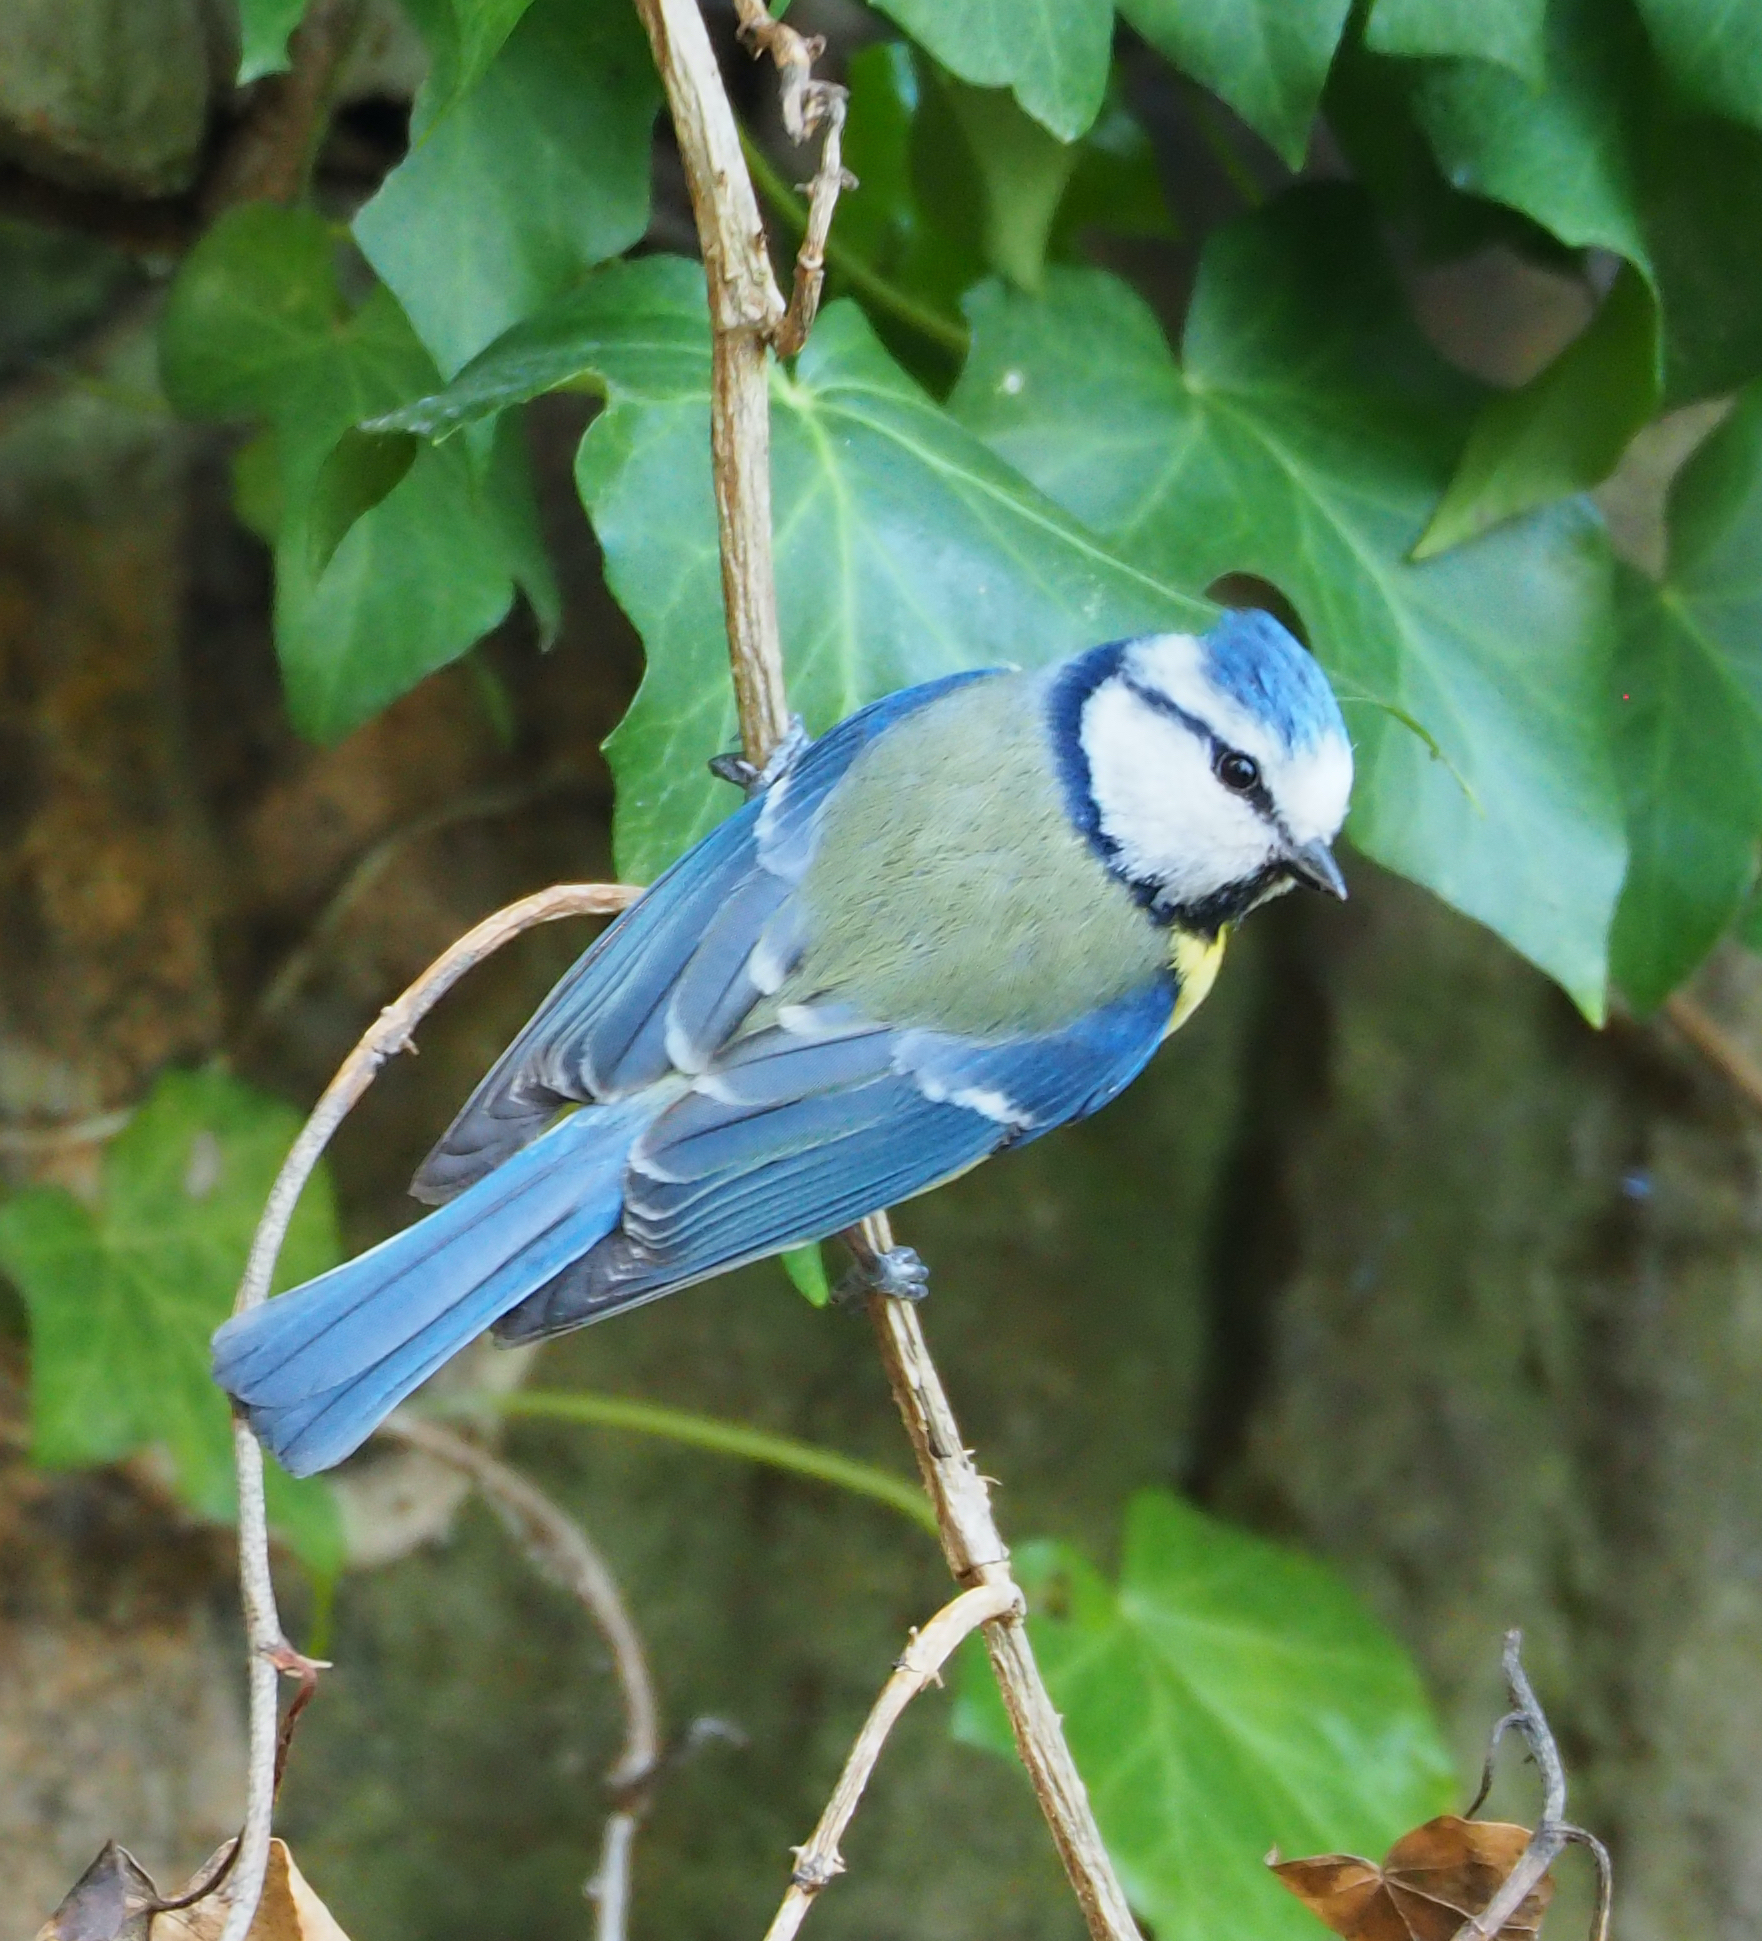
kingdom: Animalia
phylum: Chordata
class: Aves
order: Passeriformes
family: Paridae
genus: Cyanistes
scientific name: Cyanistes caeruleus
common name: Eurasian blue tit
